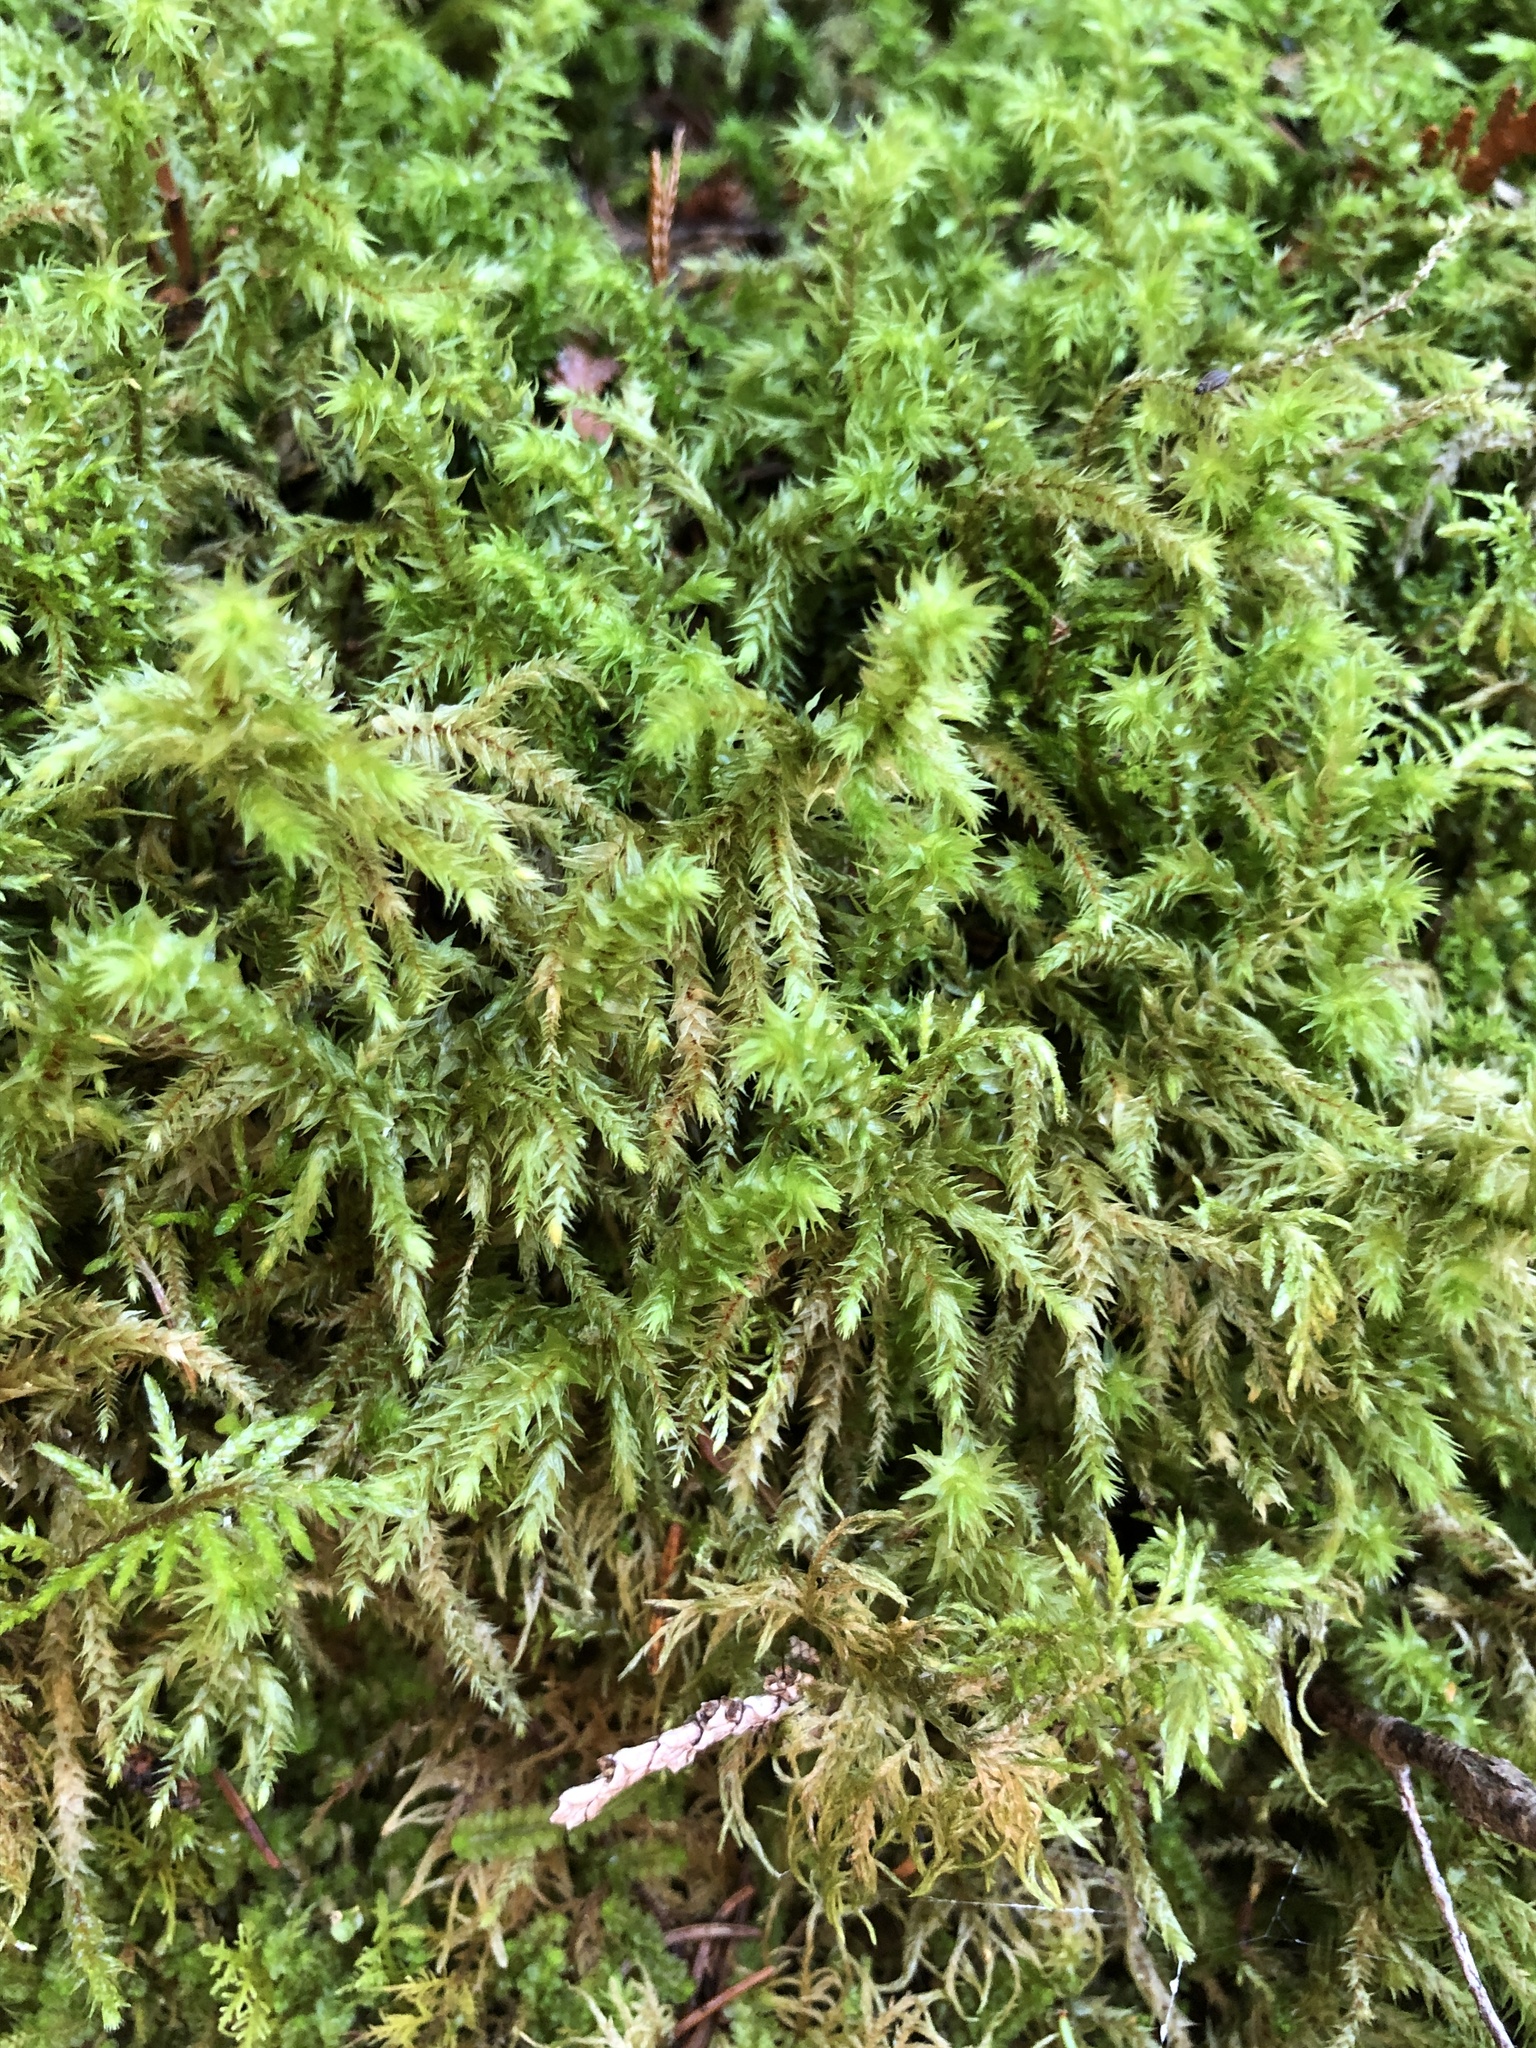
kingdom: Plantae
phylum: Bryophyta
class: Bryopsida
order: Hypnales
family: Hylocomiaceae
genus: Hylocomiadelphus
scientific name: Hylocomiadelphus triquetrus
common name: Rough goose neck moss
